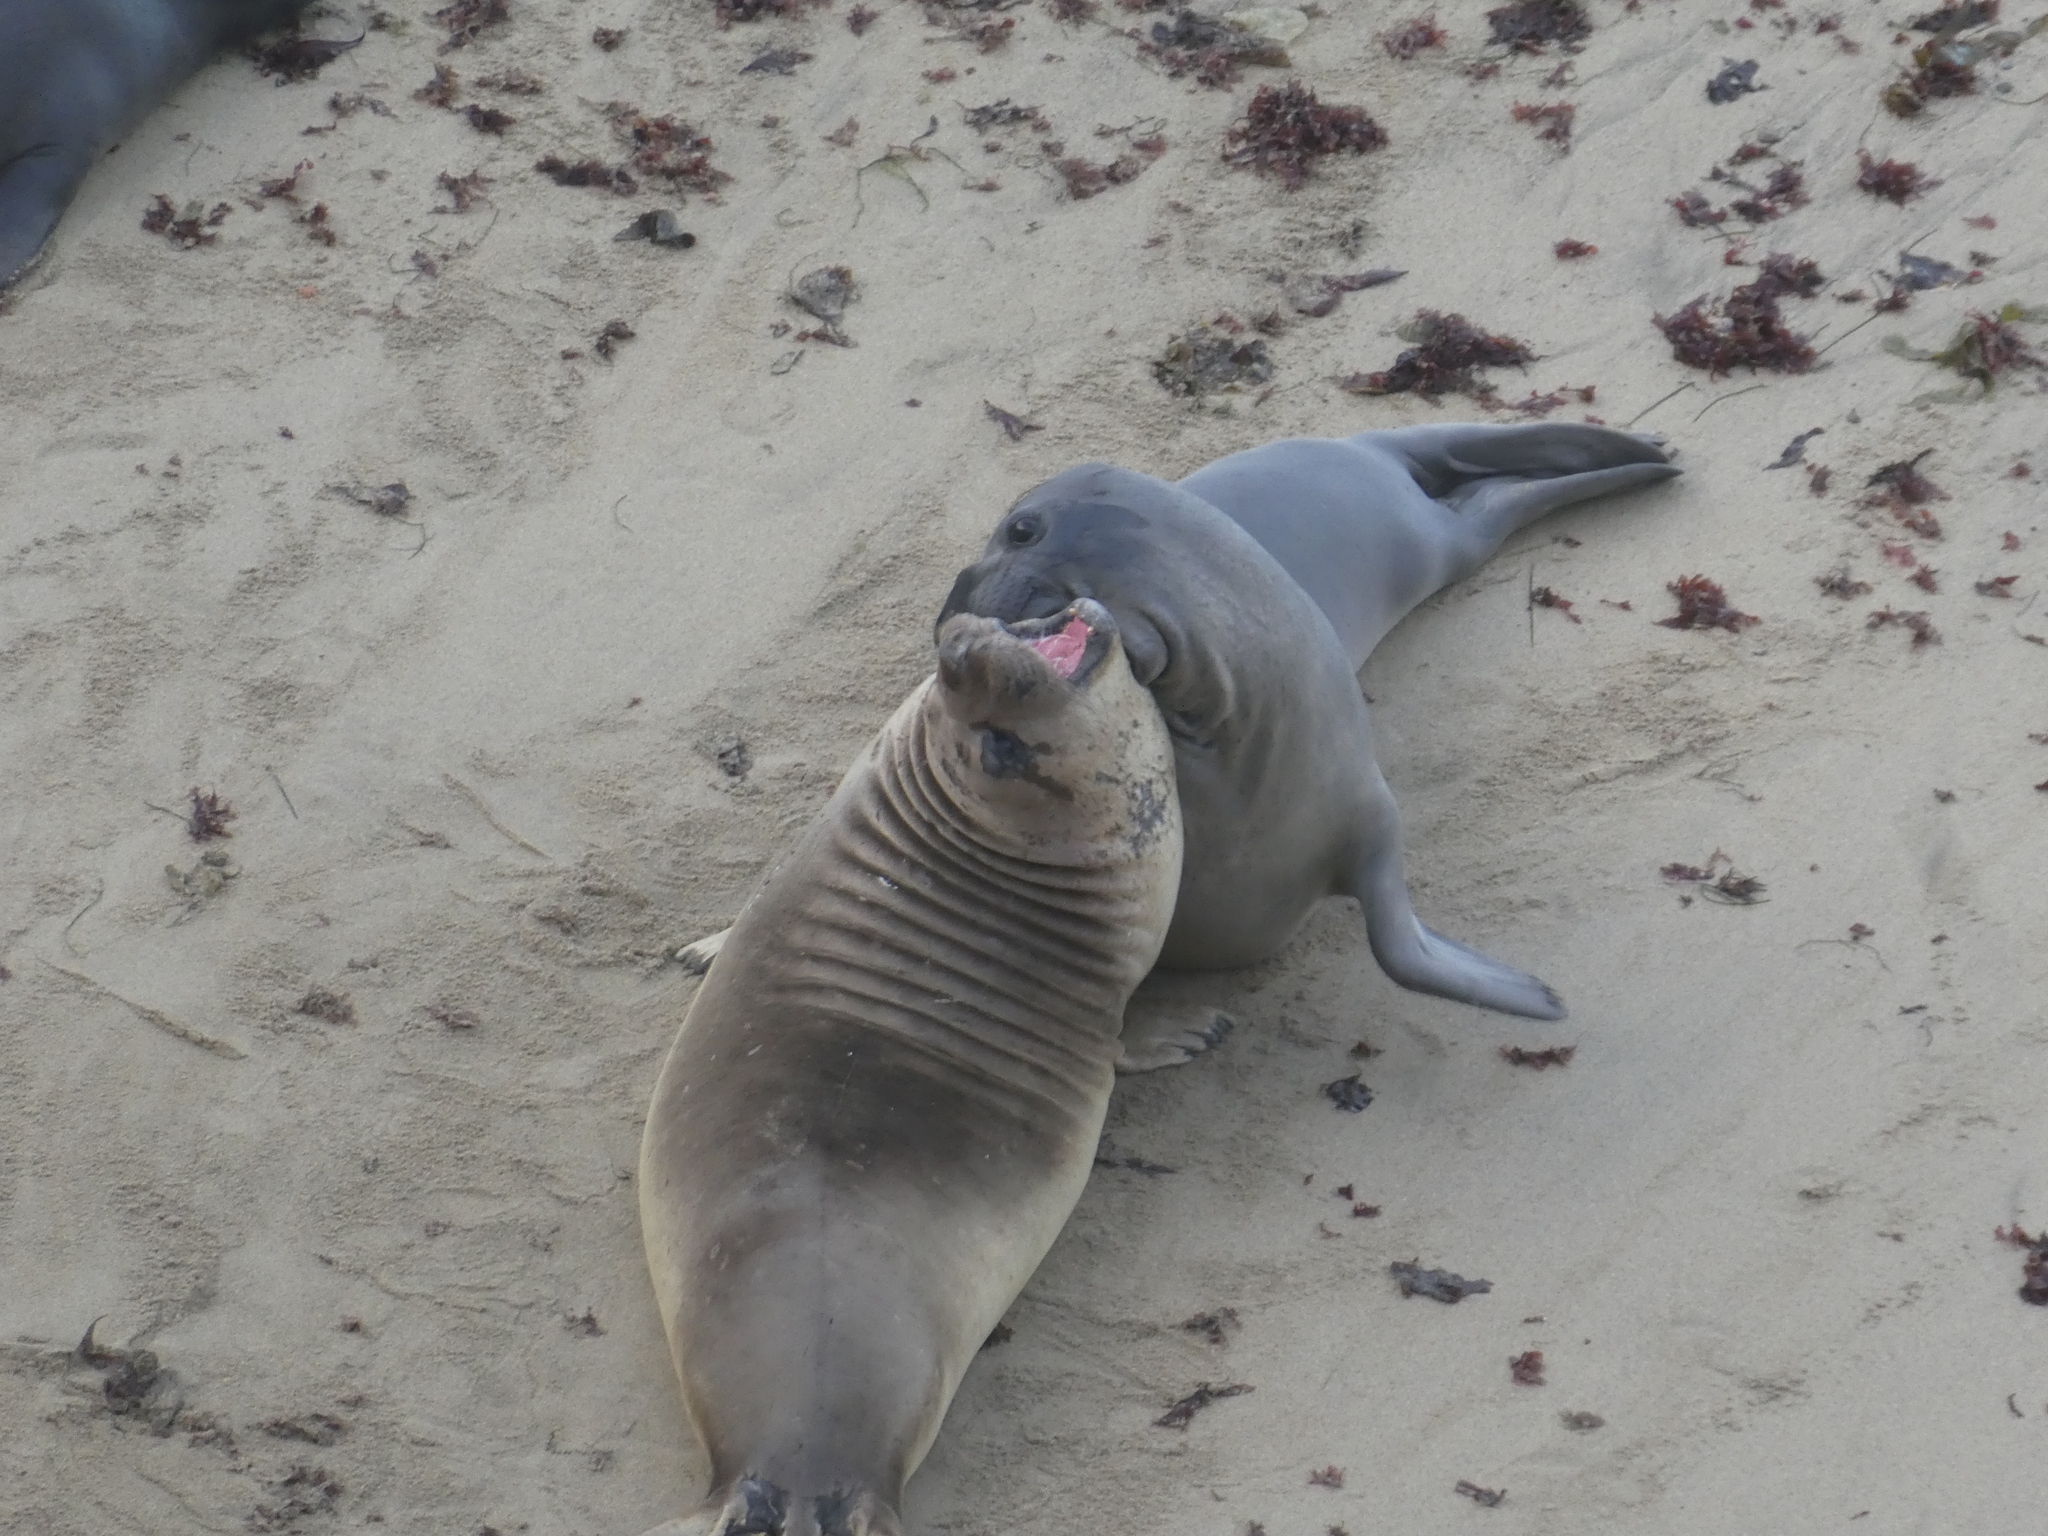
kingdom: Animalia
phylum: Chordata
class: Mammalia
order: Carnivora
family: Phocidae
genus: Mirounga
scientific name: Mirounga angustirostris
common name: Northern elephant seal
